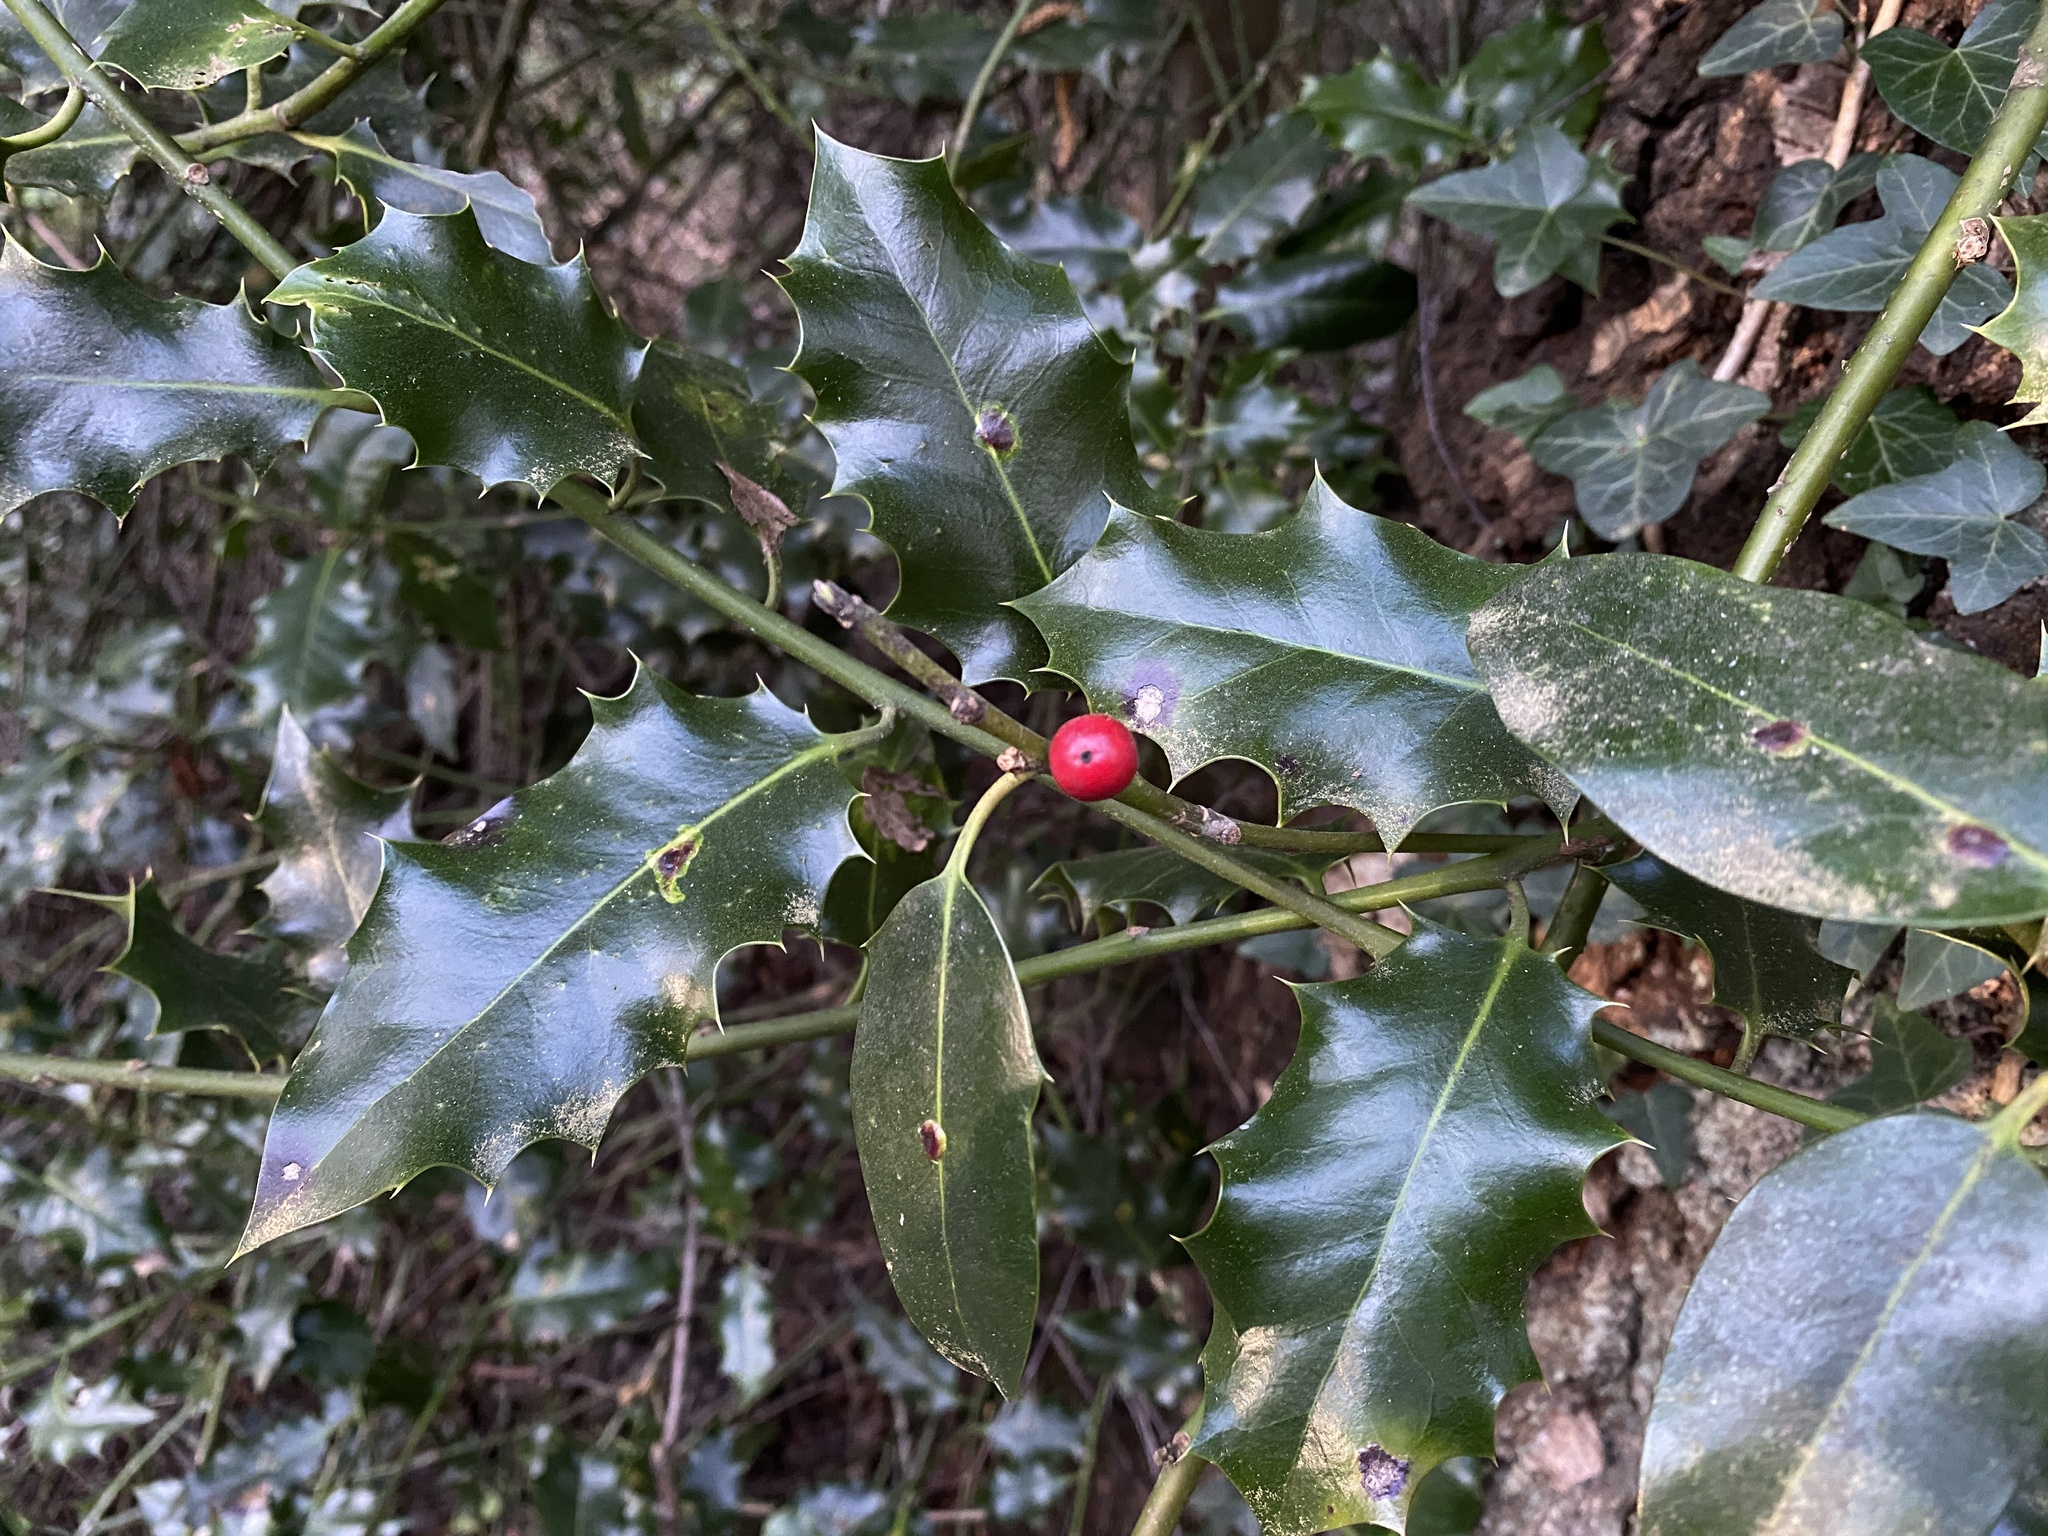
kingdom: Plantae
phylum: Tracheophyta
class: Magnoliopsida
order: Aquifoliales
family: Aquifoliaceae
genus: Ilex
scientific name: Ilex aquifolium
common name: English holly
